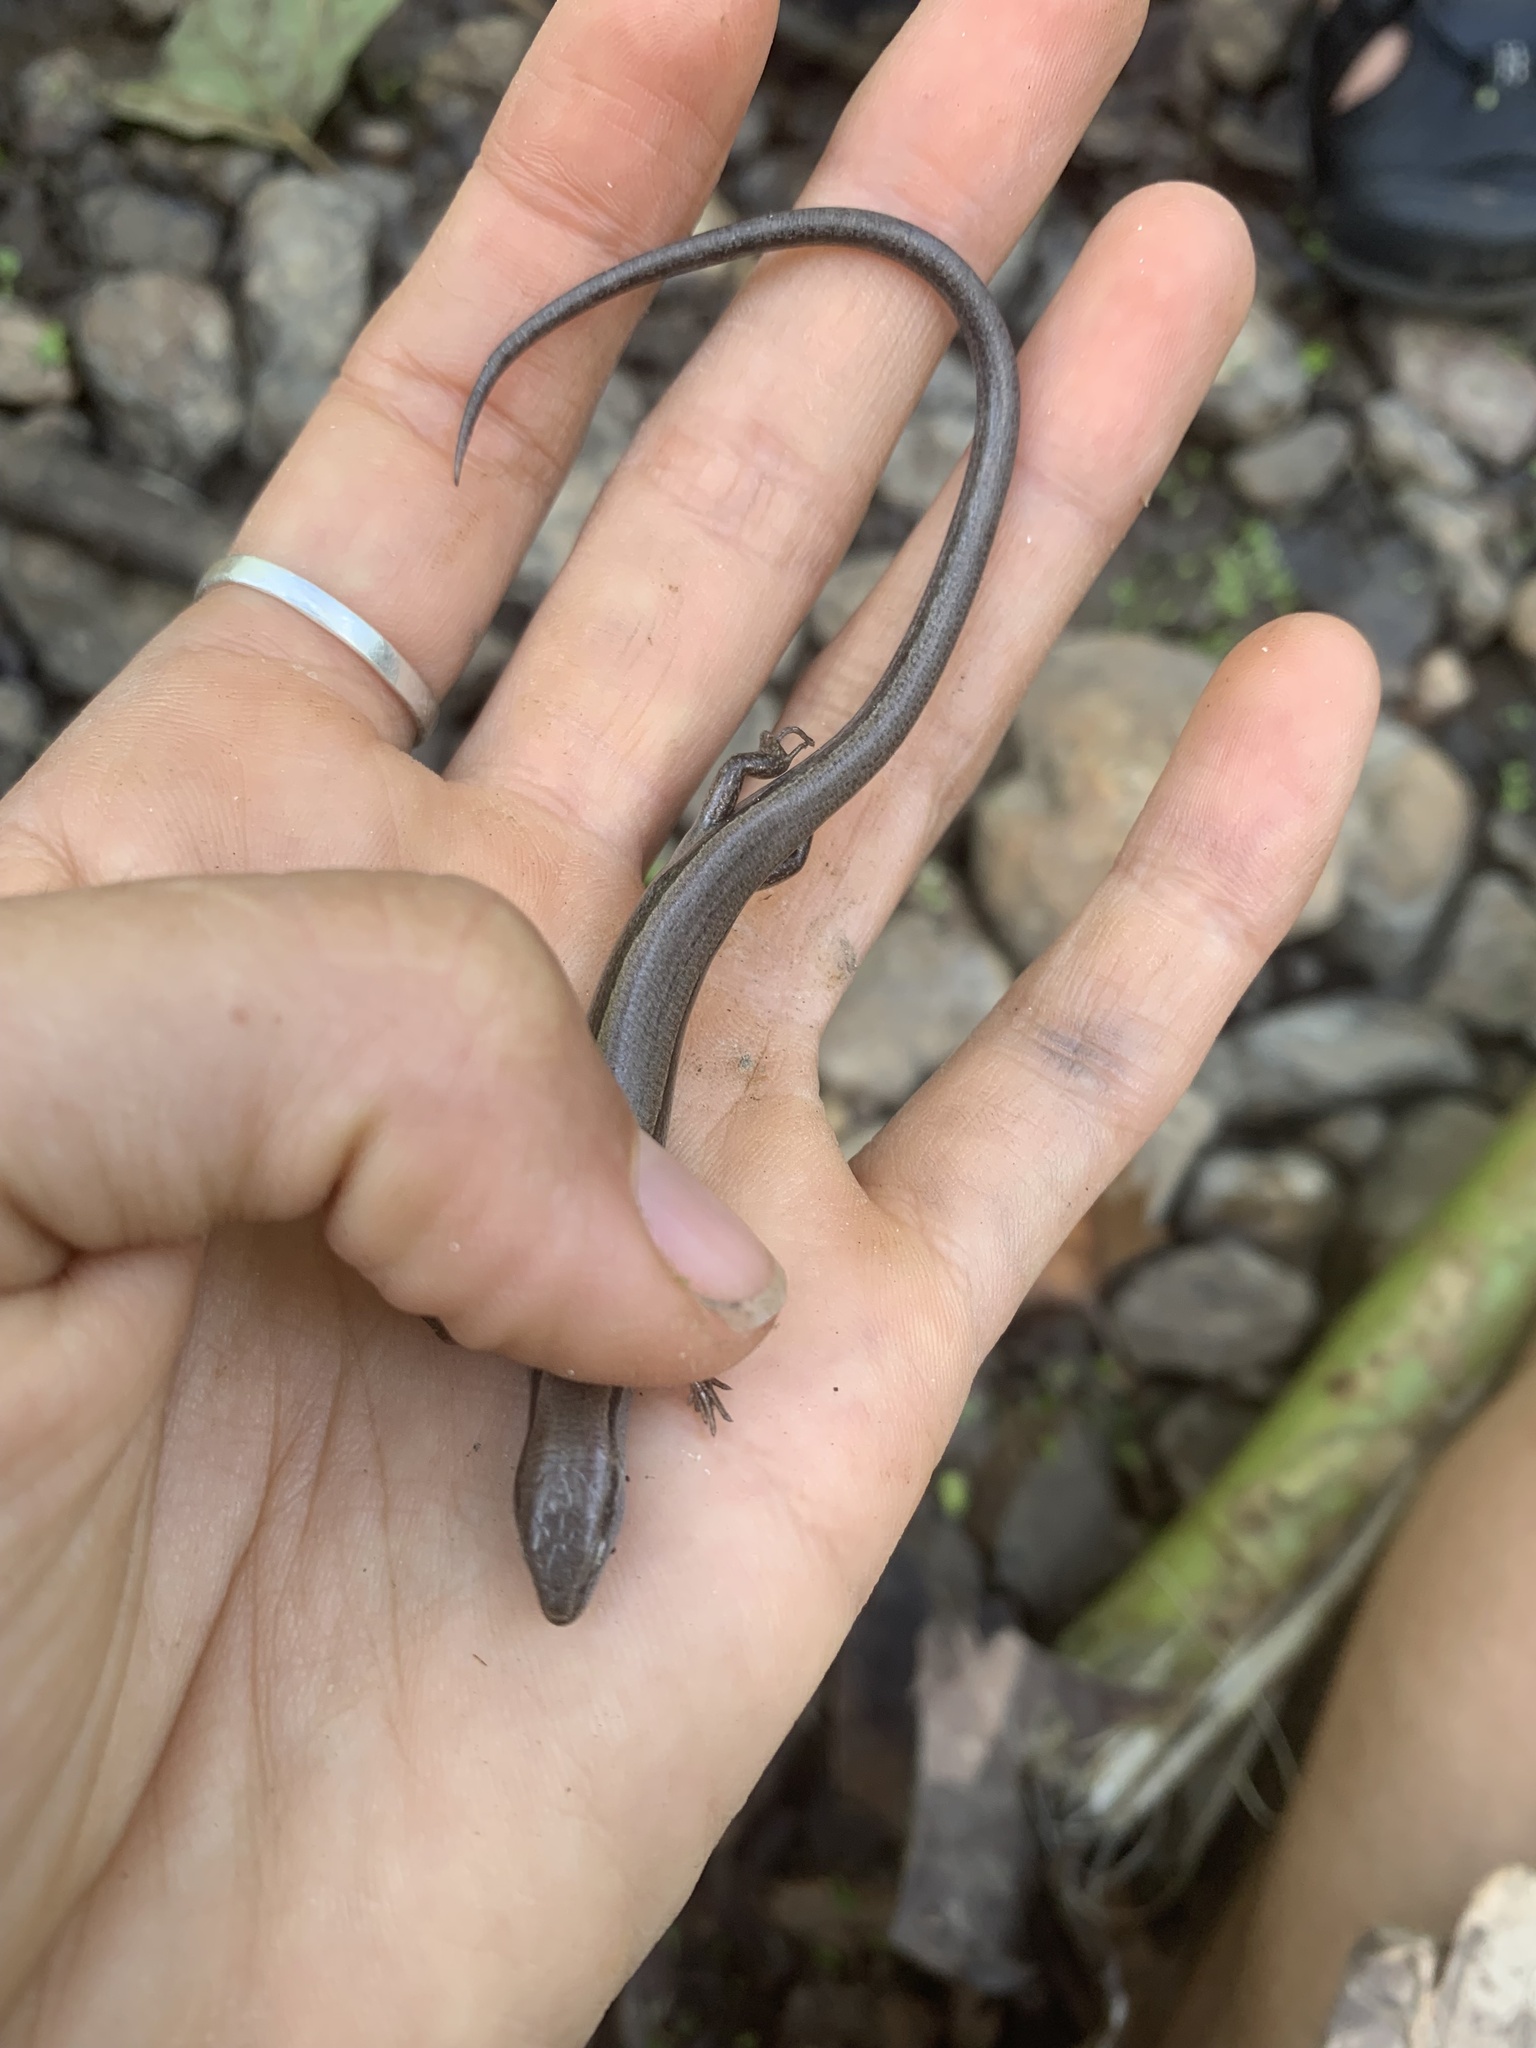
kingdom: Animalia
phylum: Chordata
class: Squamata
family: Scincidae
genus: Scincella
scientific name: Scincella lateralis
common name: Ground skink
